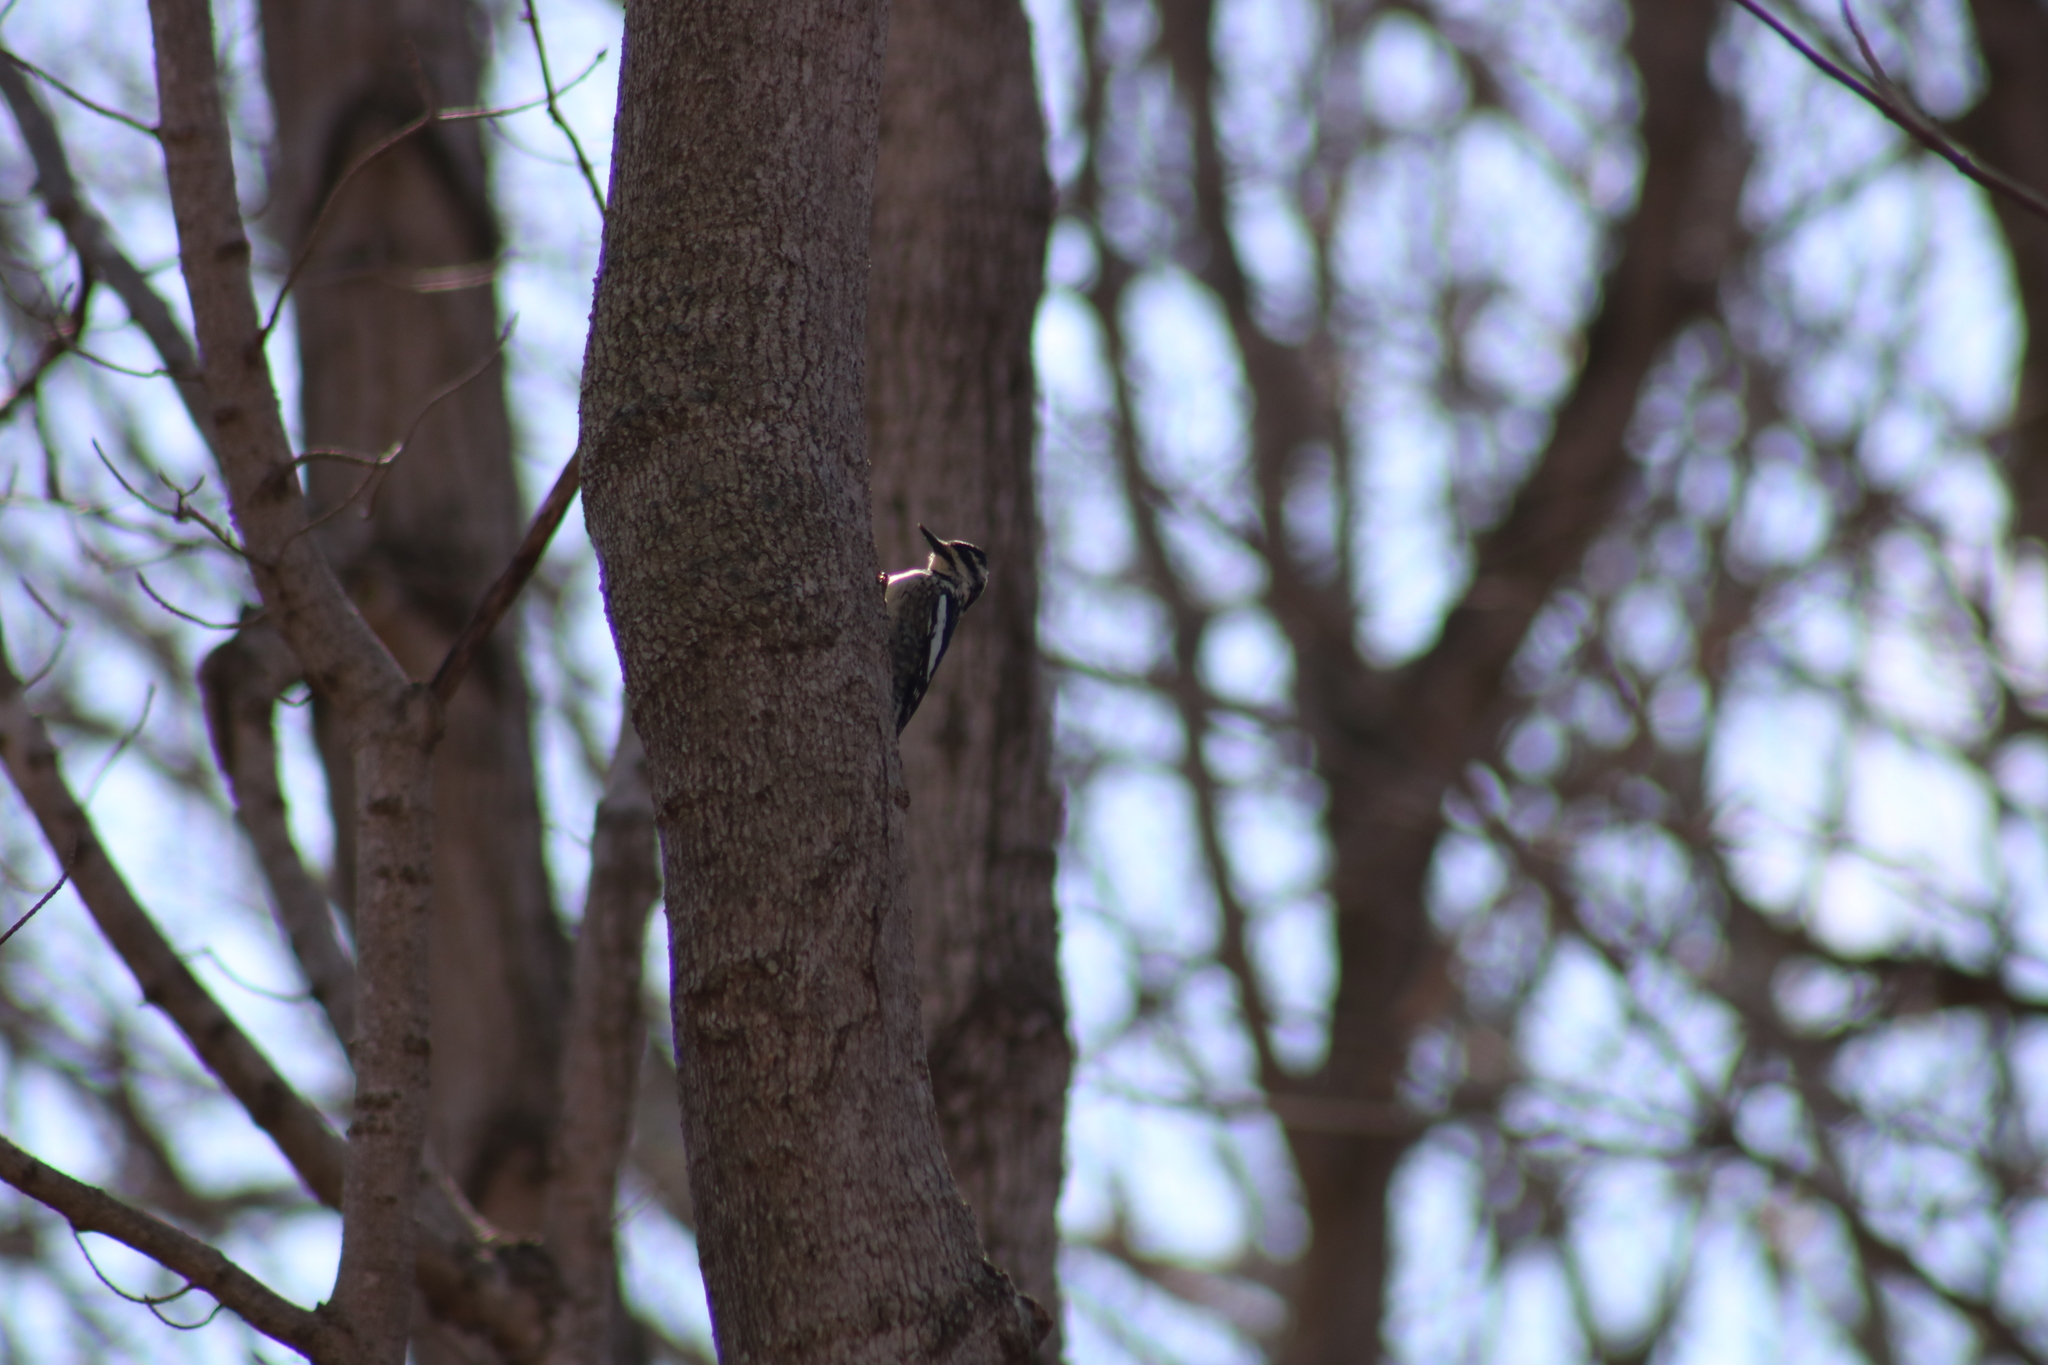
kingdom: Animalia
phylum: Chordata
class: Aves
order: Piciformes
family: Picidae
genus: Sphyrapicus
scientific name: Sphyrapicus varius
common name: Yellow-bellied sapsucker
